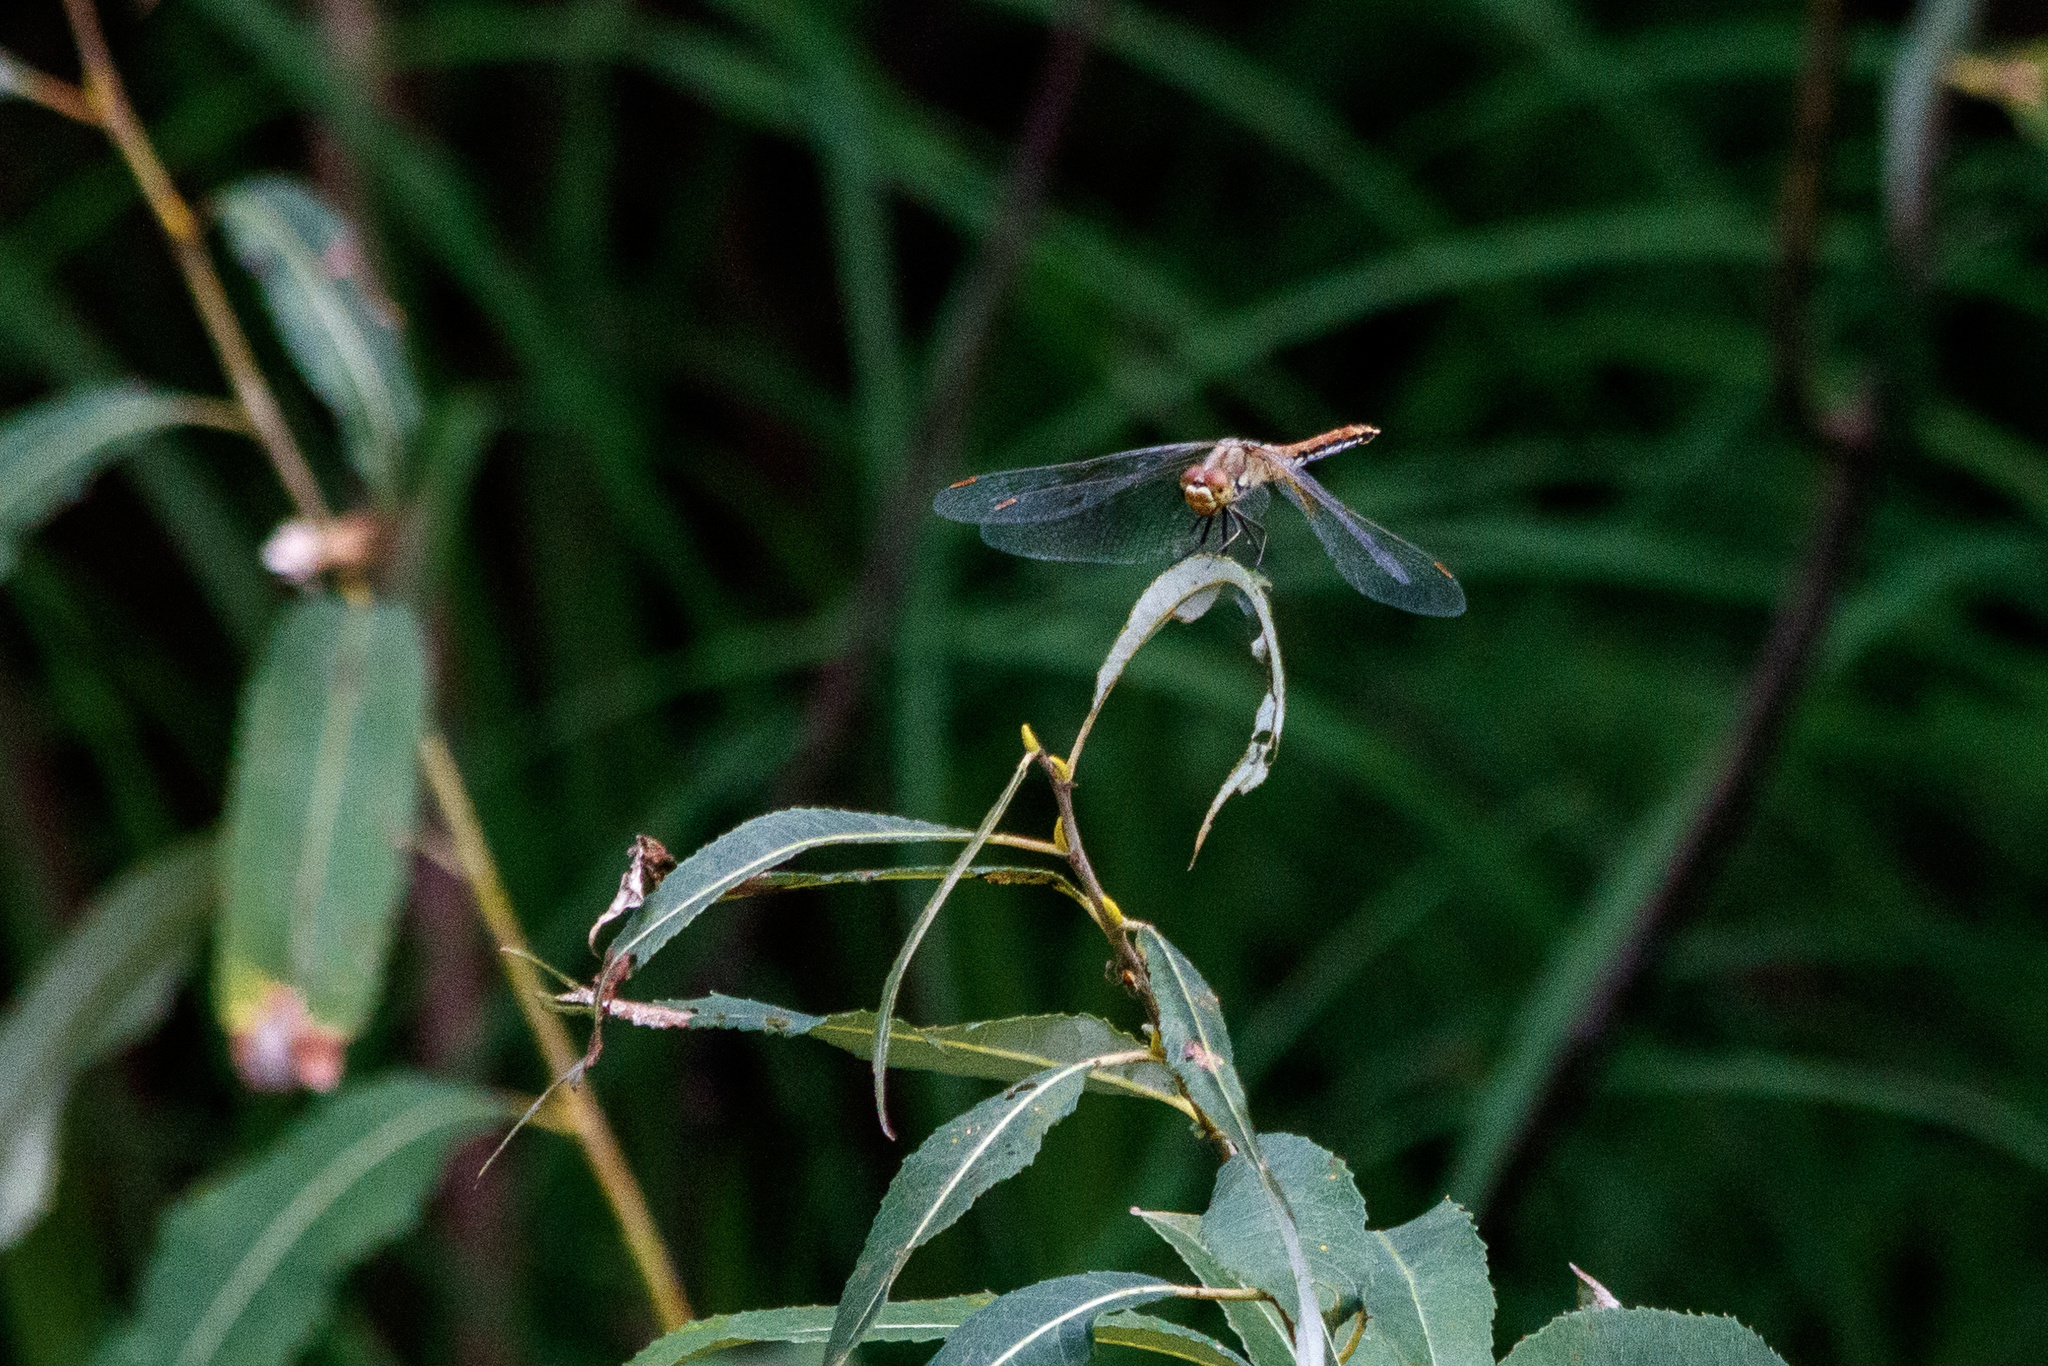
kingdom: Animalia
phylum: Arthropoda
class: Insecta
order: Odonata
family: Libellulidae
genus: Sympetrum
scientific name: Sympetrum flaveolum
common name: Yellow-winged darter
